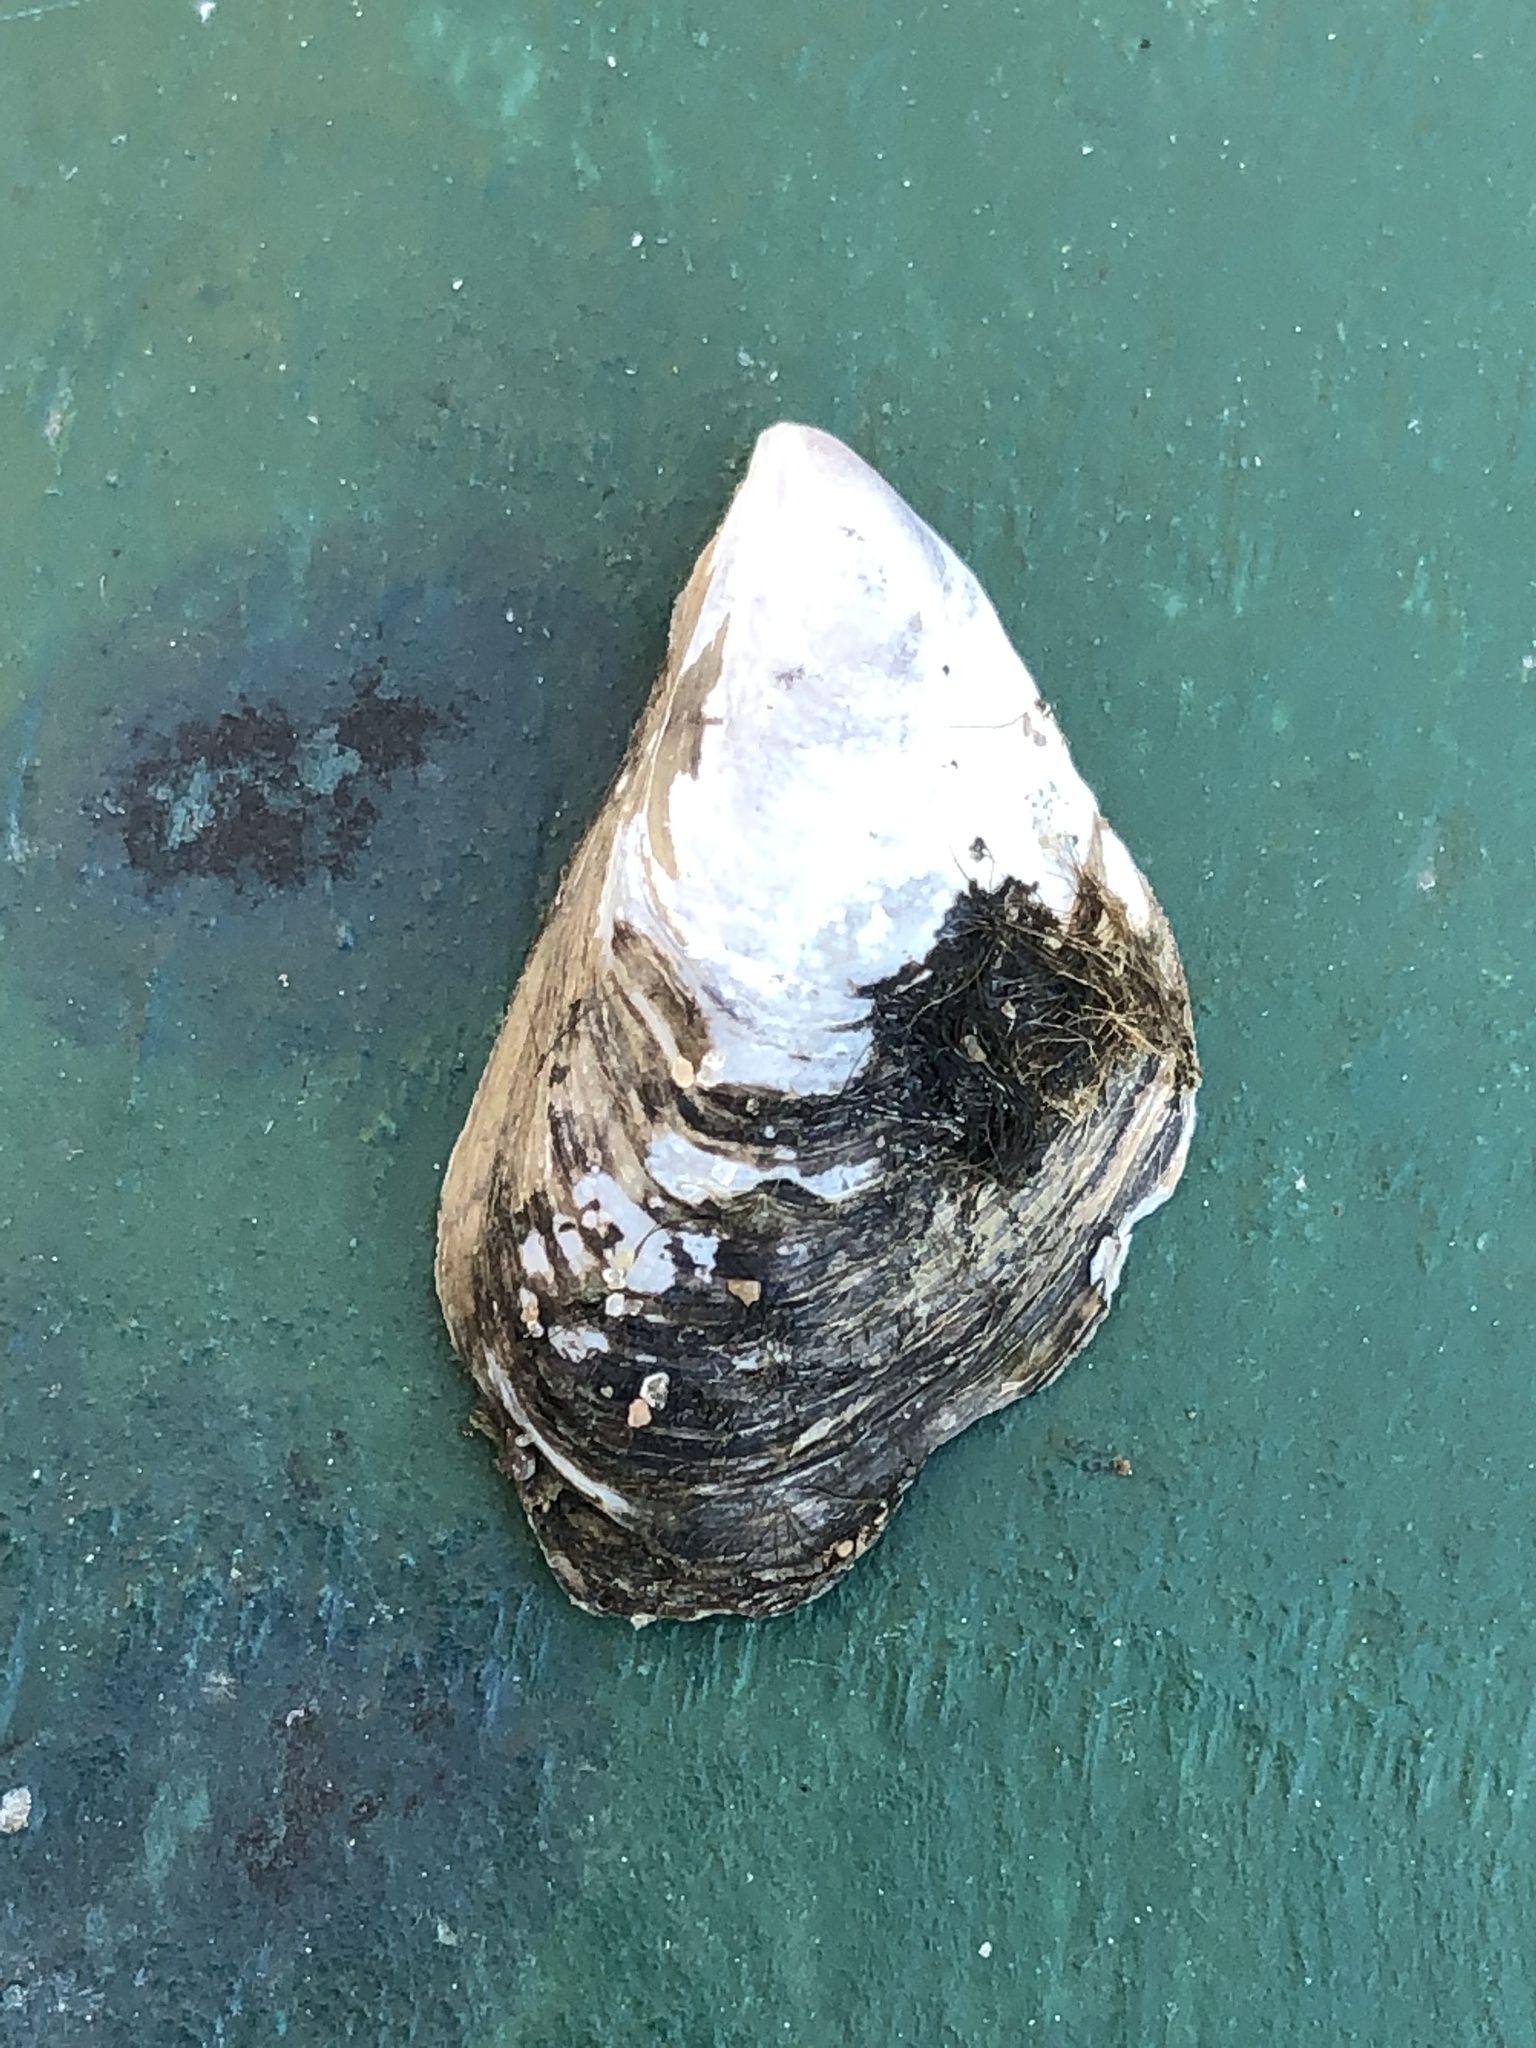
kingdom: Animalia
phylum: Mollusca
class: Bivalvia
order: Myida
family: Dreissenidae
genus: Dreissena
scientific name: Dreissena bugensis
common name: Quagga mussel
